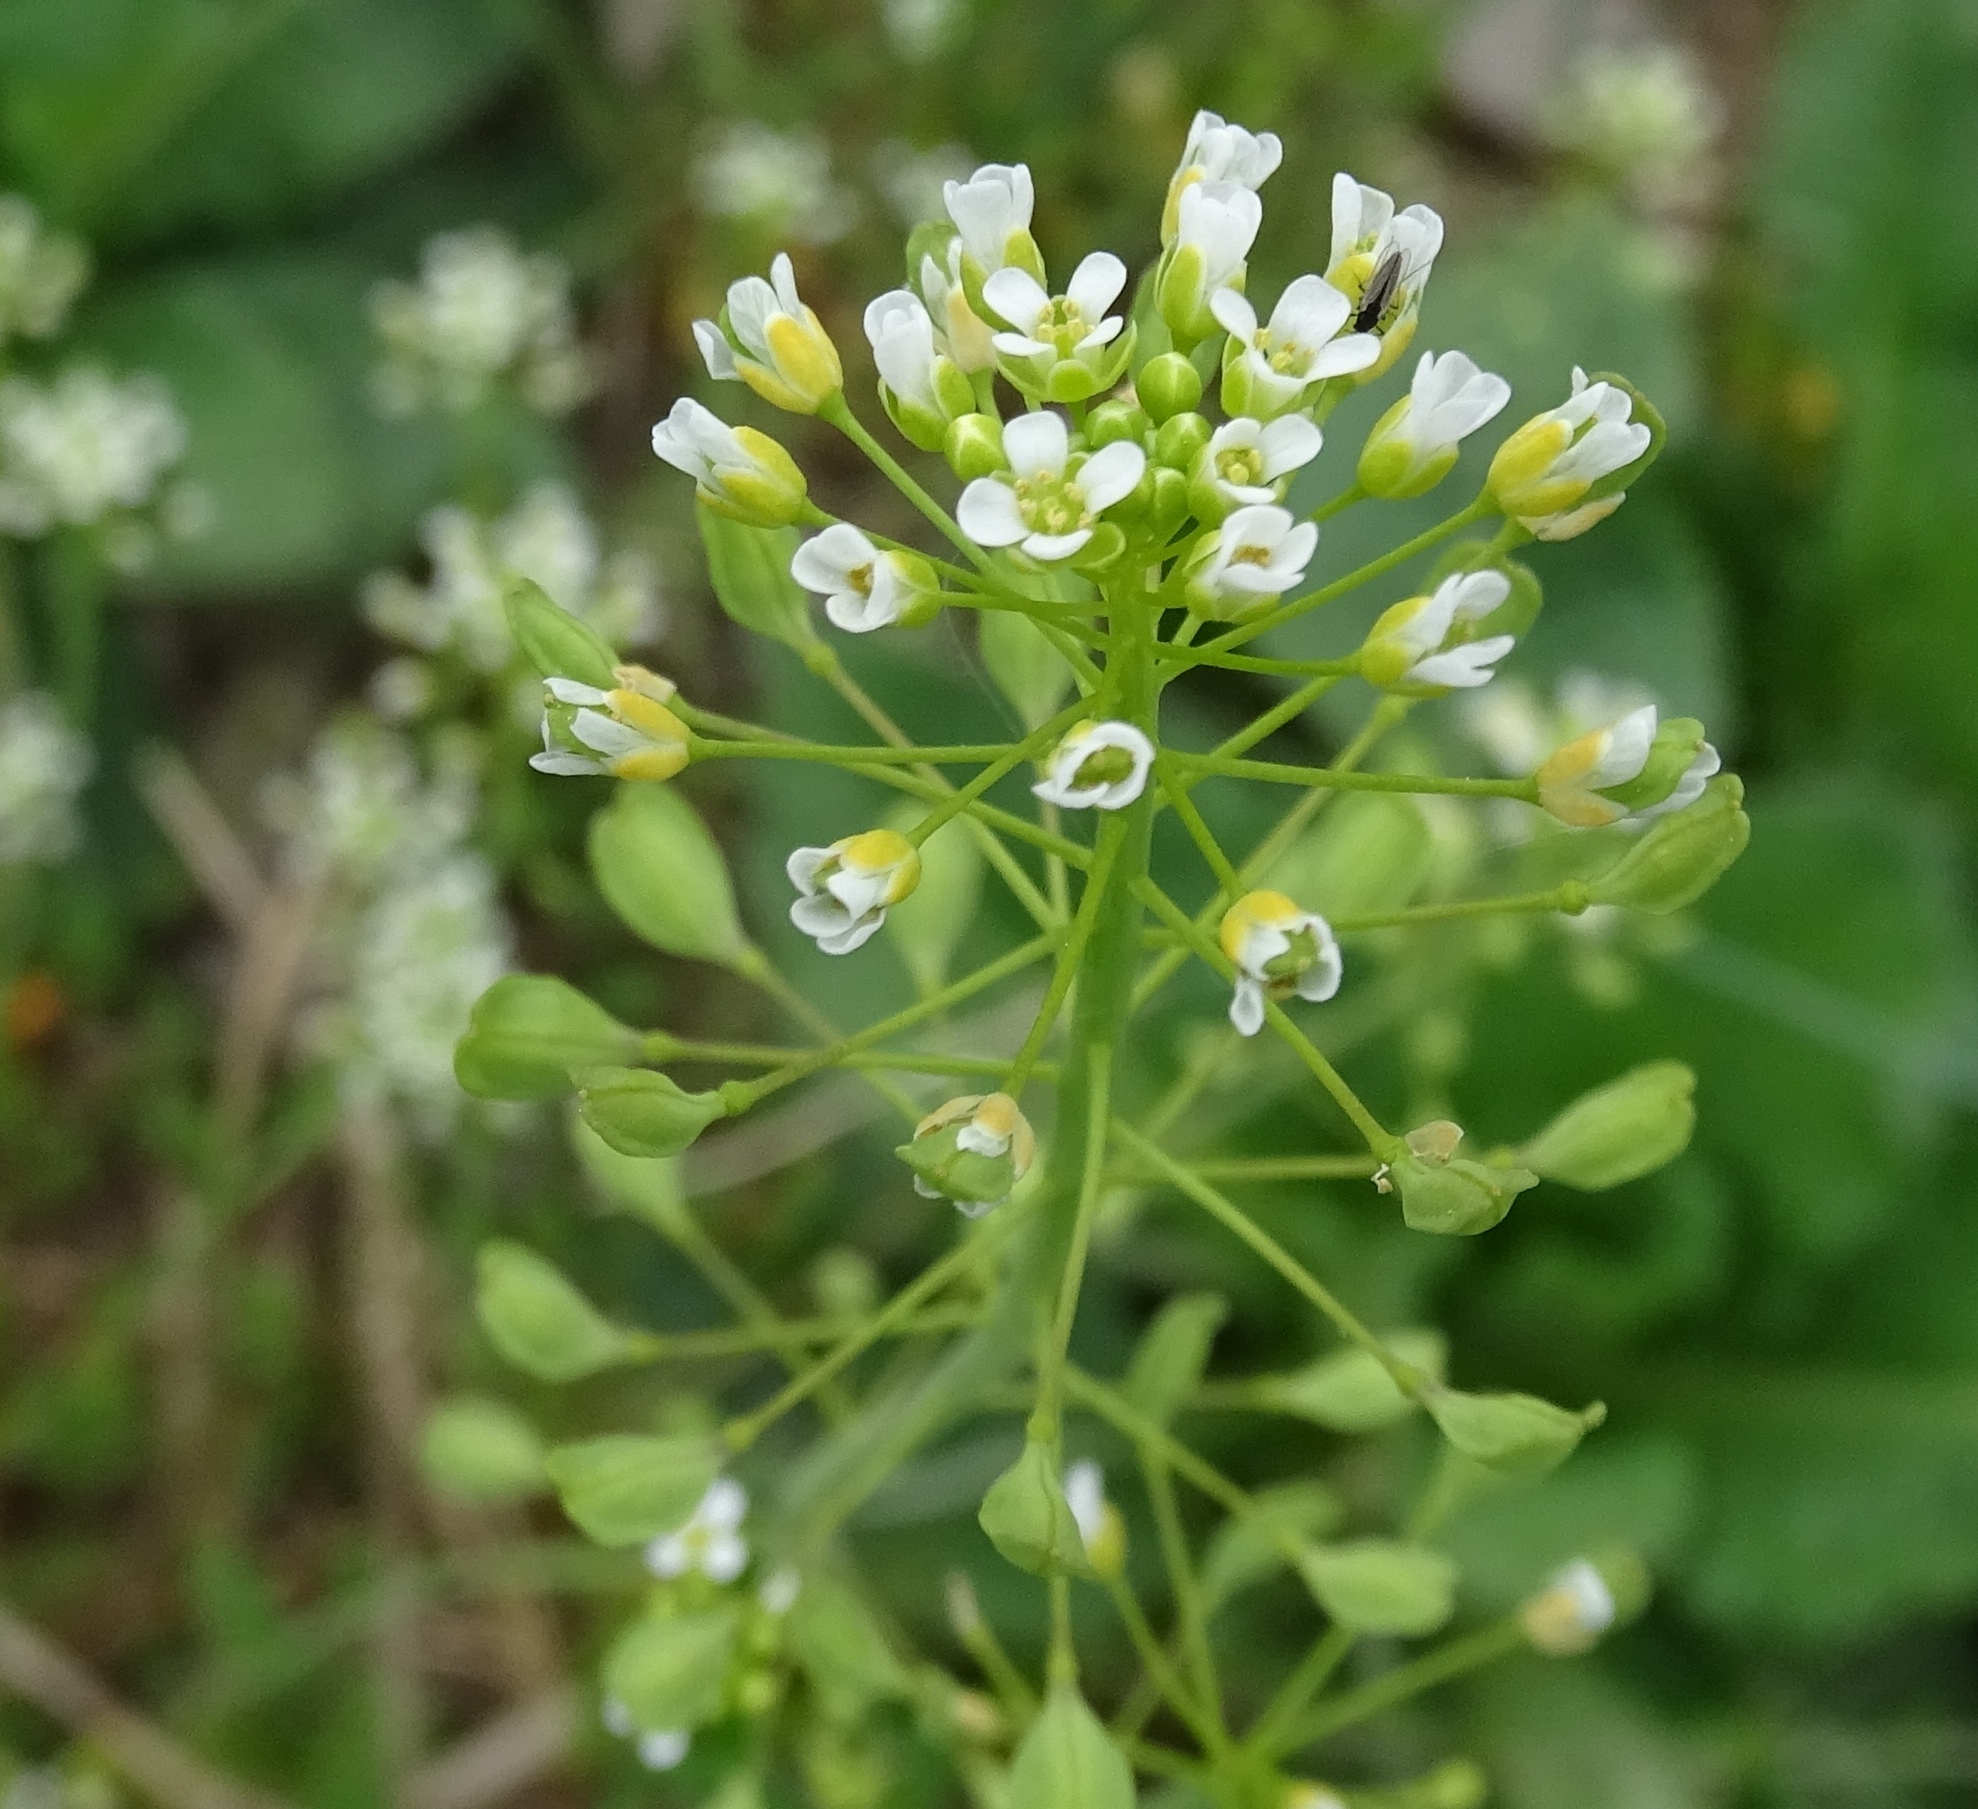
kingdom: Plantae
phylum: Tracheophyta
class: Magnoliopsida
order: Brassicales
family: Brassicaceae
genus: Mummenhoffia
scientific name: Mummenhoffia alliacea
